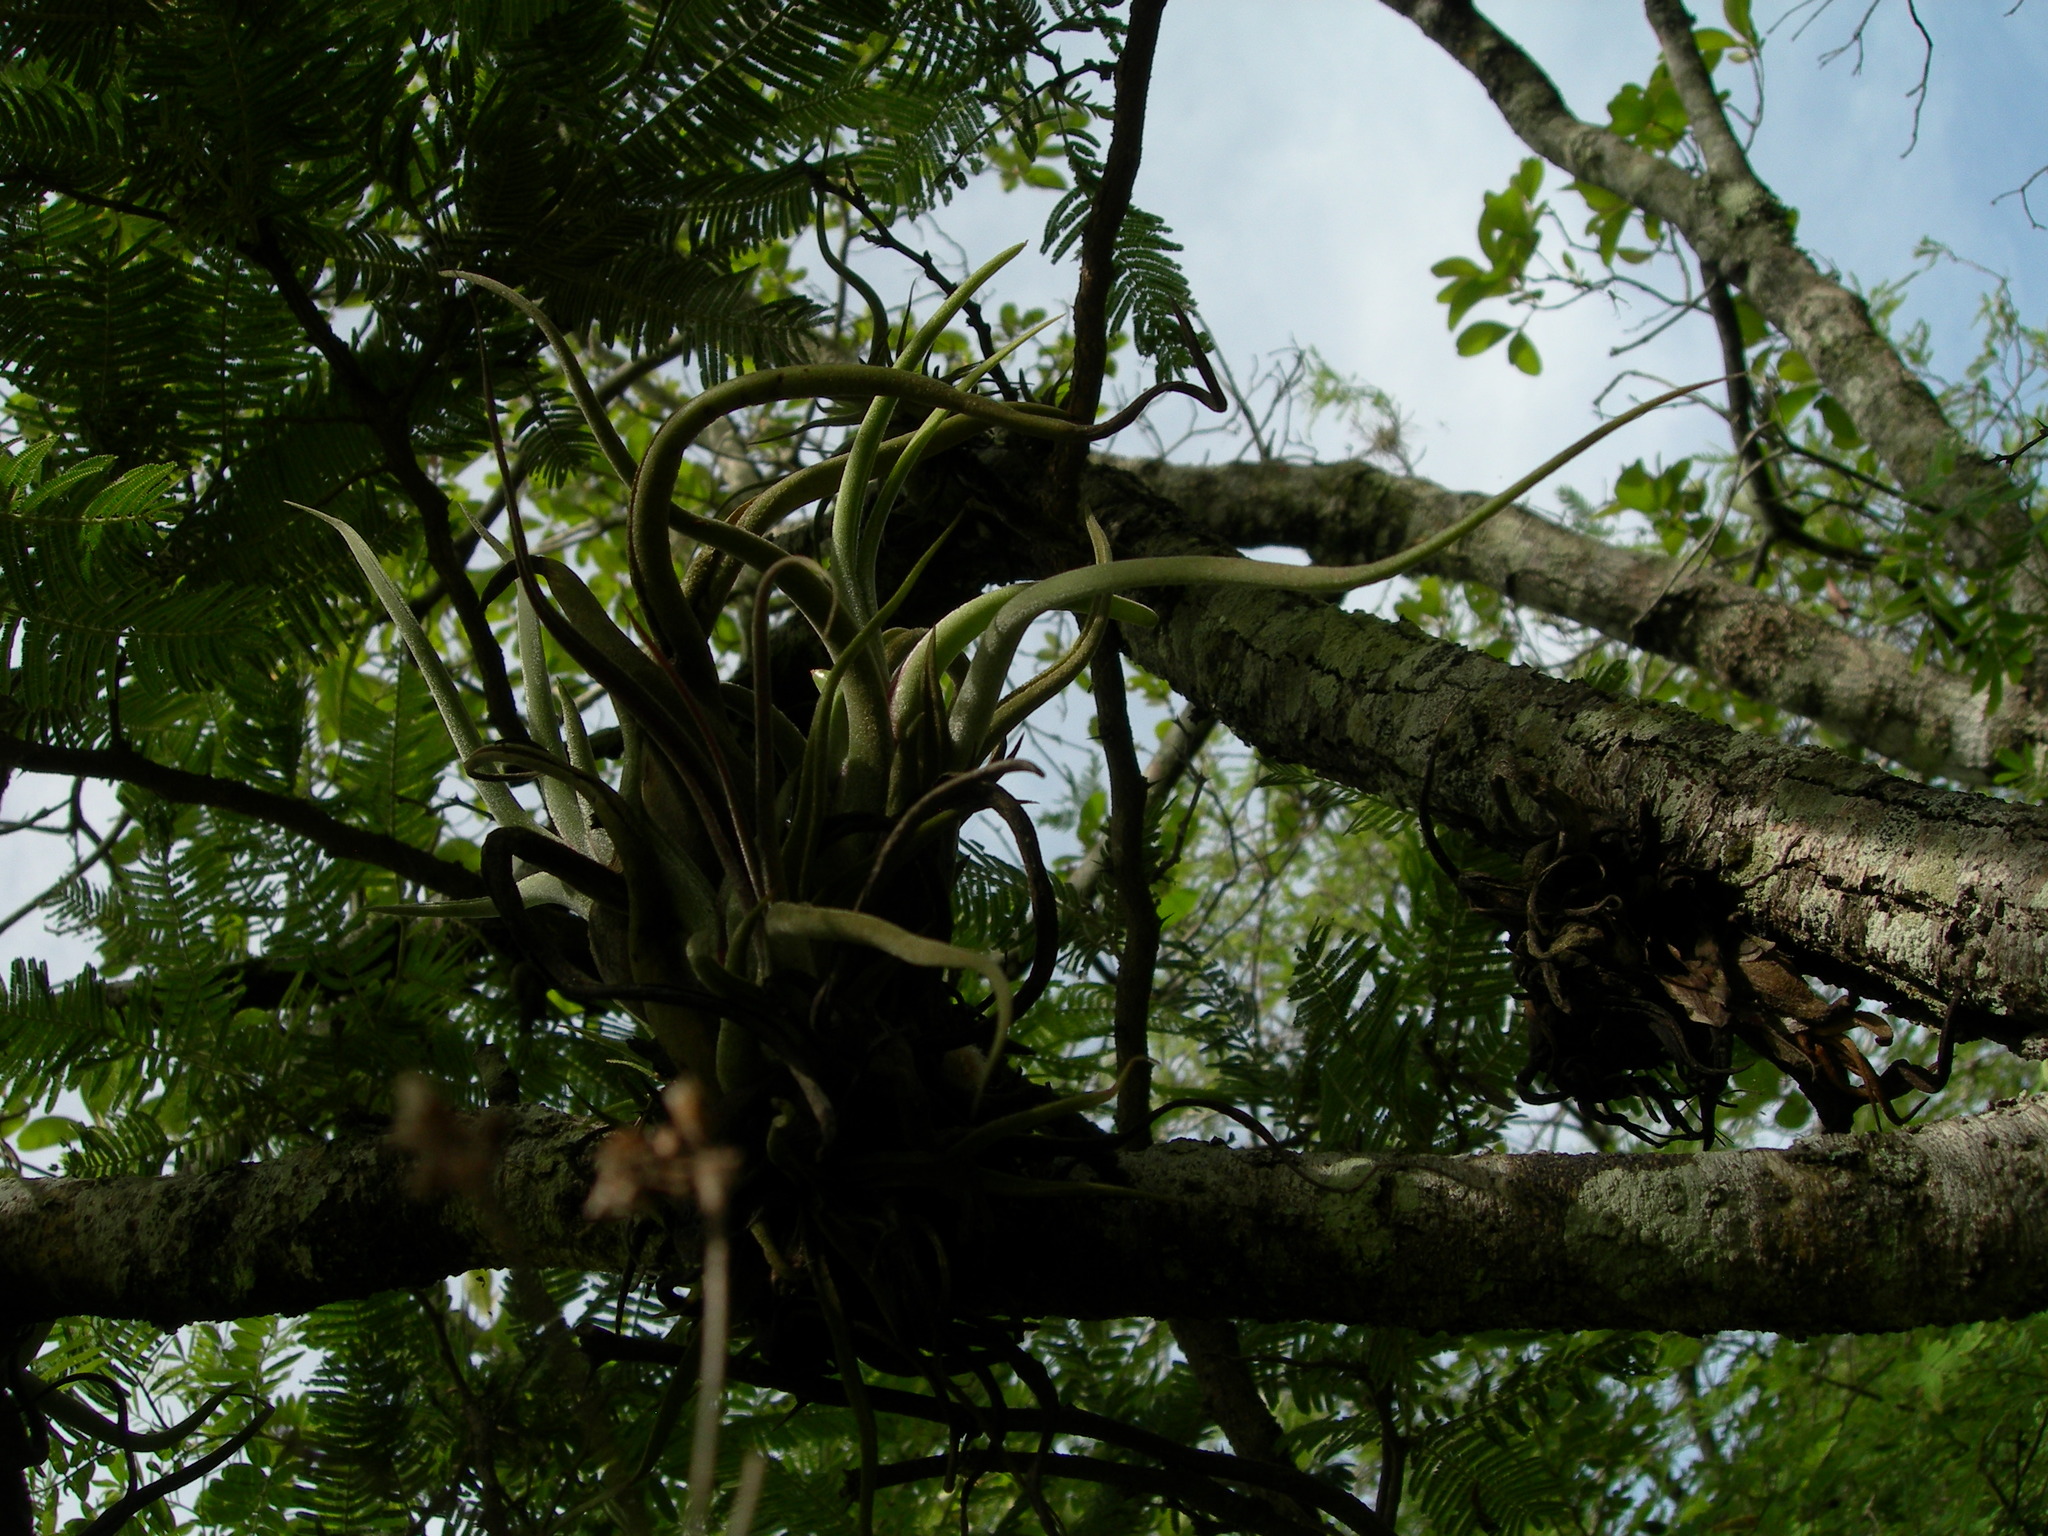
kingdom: Plantae
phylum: Tracheophyta
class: Liliopsida
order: Poales
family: Bromeliaceae
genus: Tillandsia
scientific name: Tillandsia caput-medusae
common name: Octopus plant
